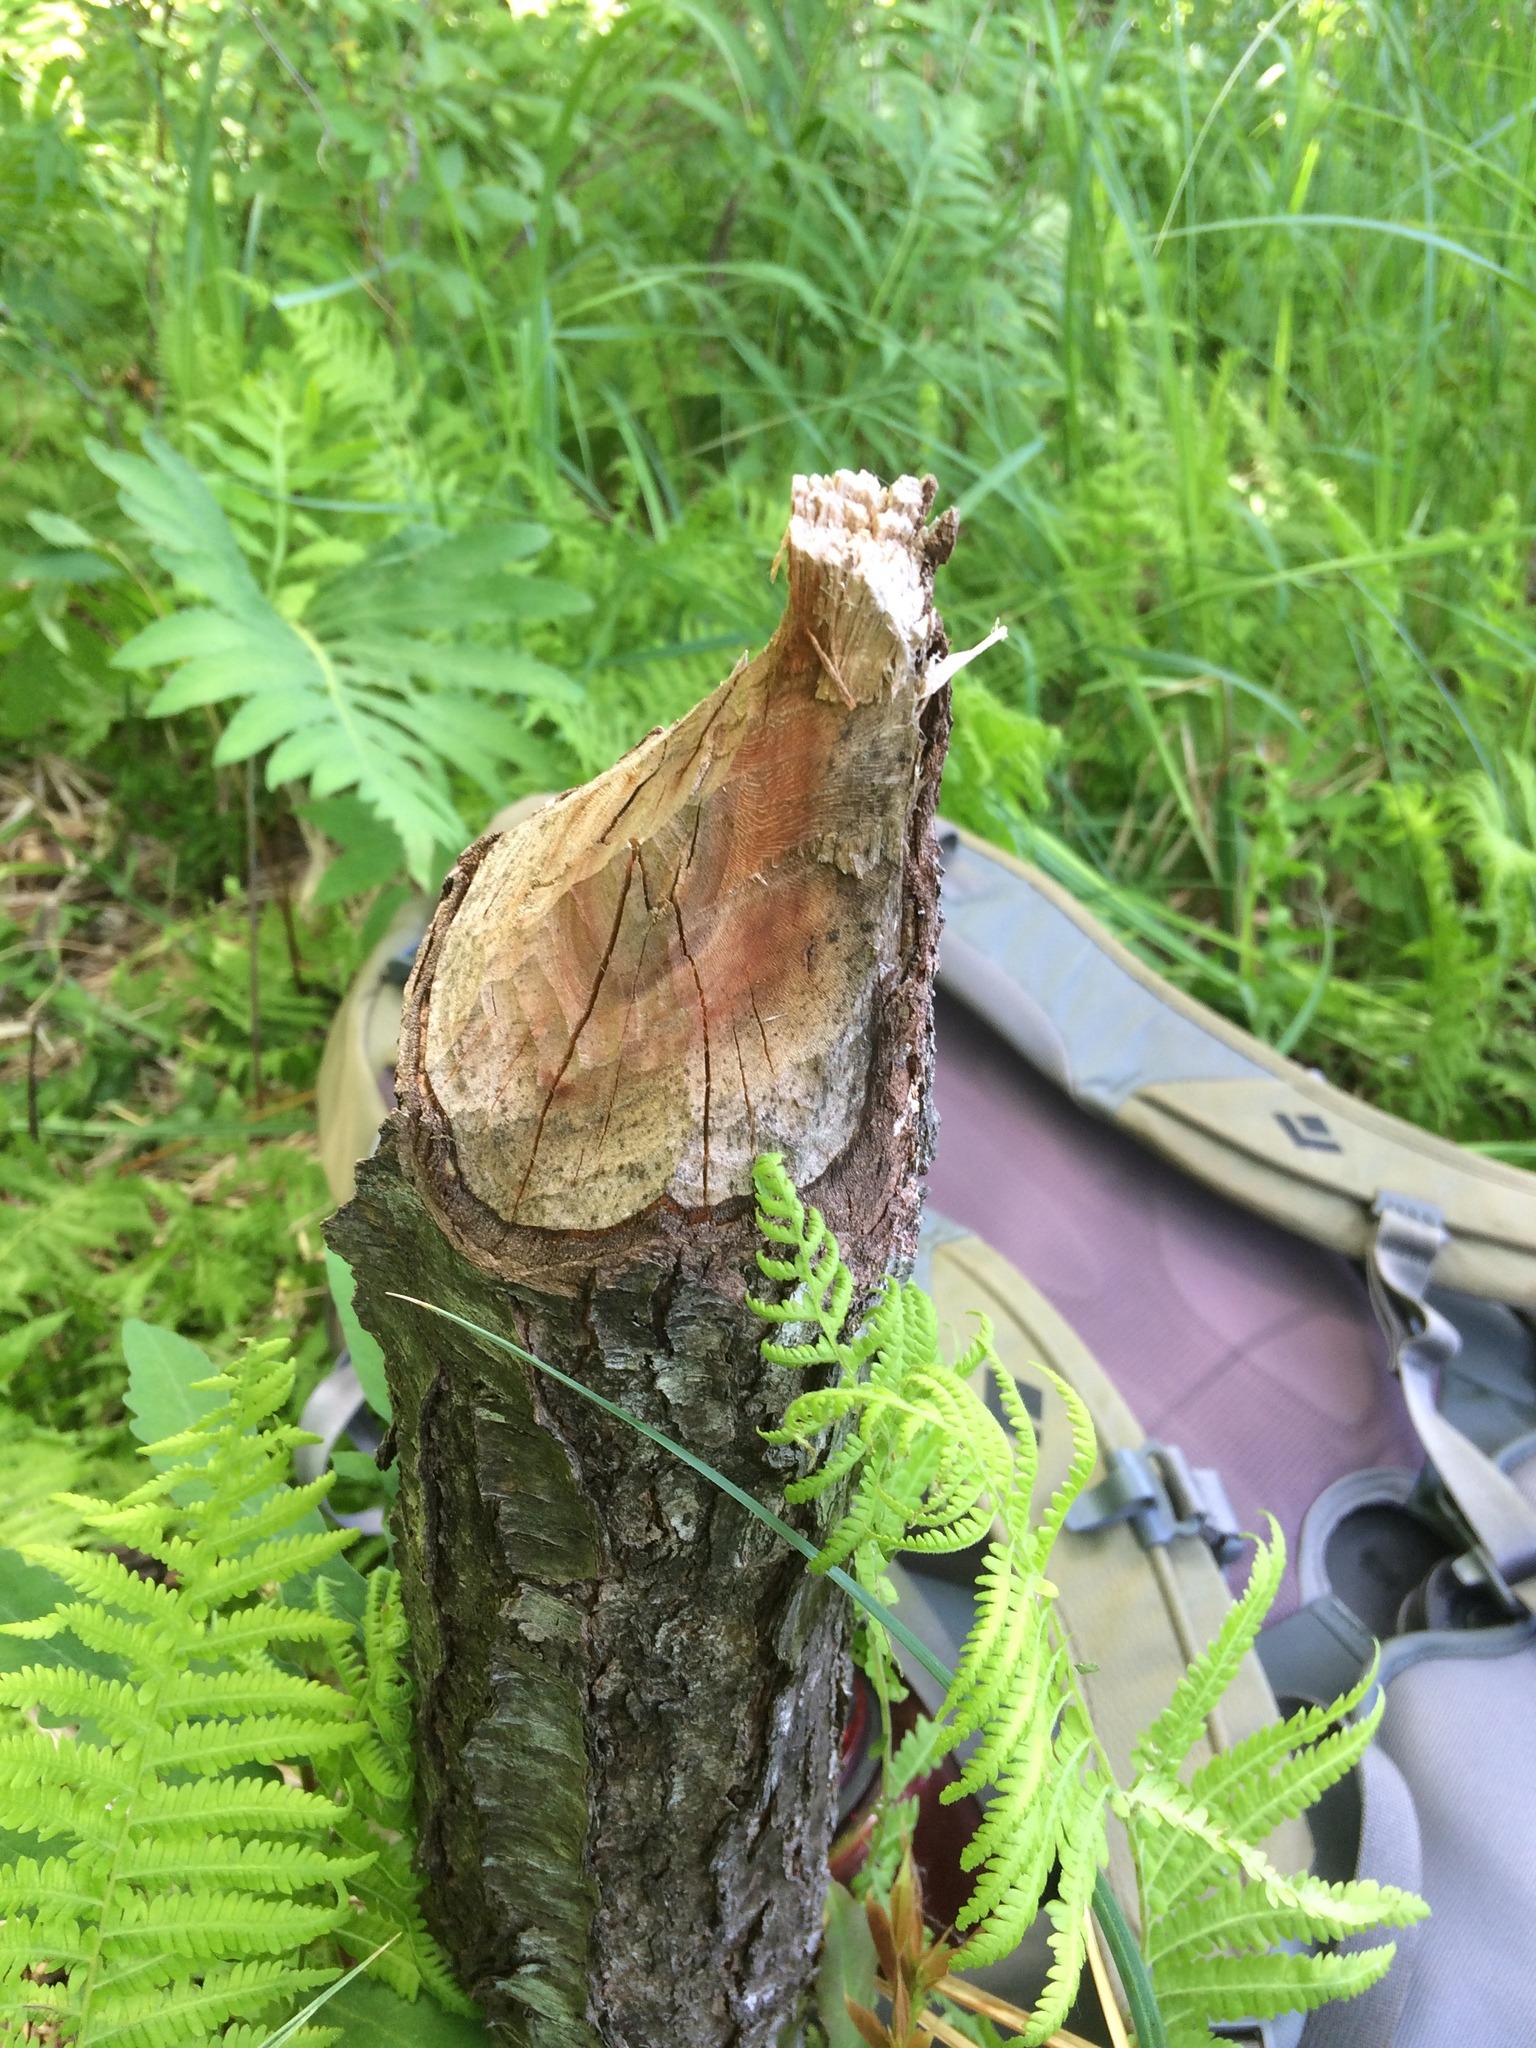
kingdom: Animalia
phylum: Chordata
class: Mammalia
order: Rodentia
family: Castoridae
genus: Castor
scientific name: Castor canadensis
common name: American beaver
